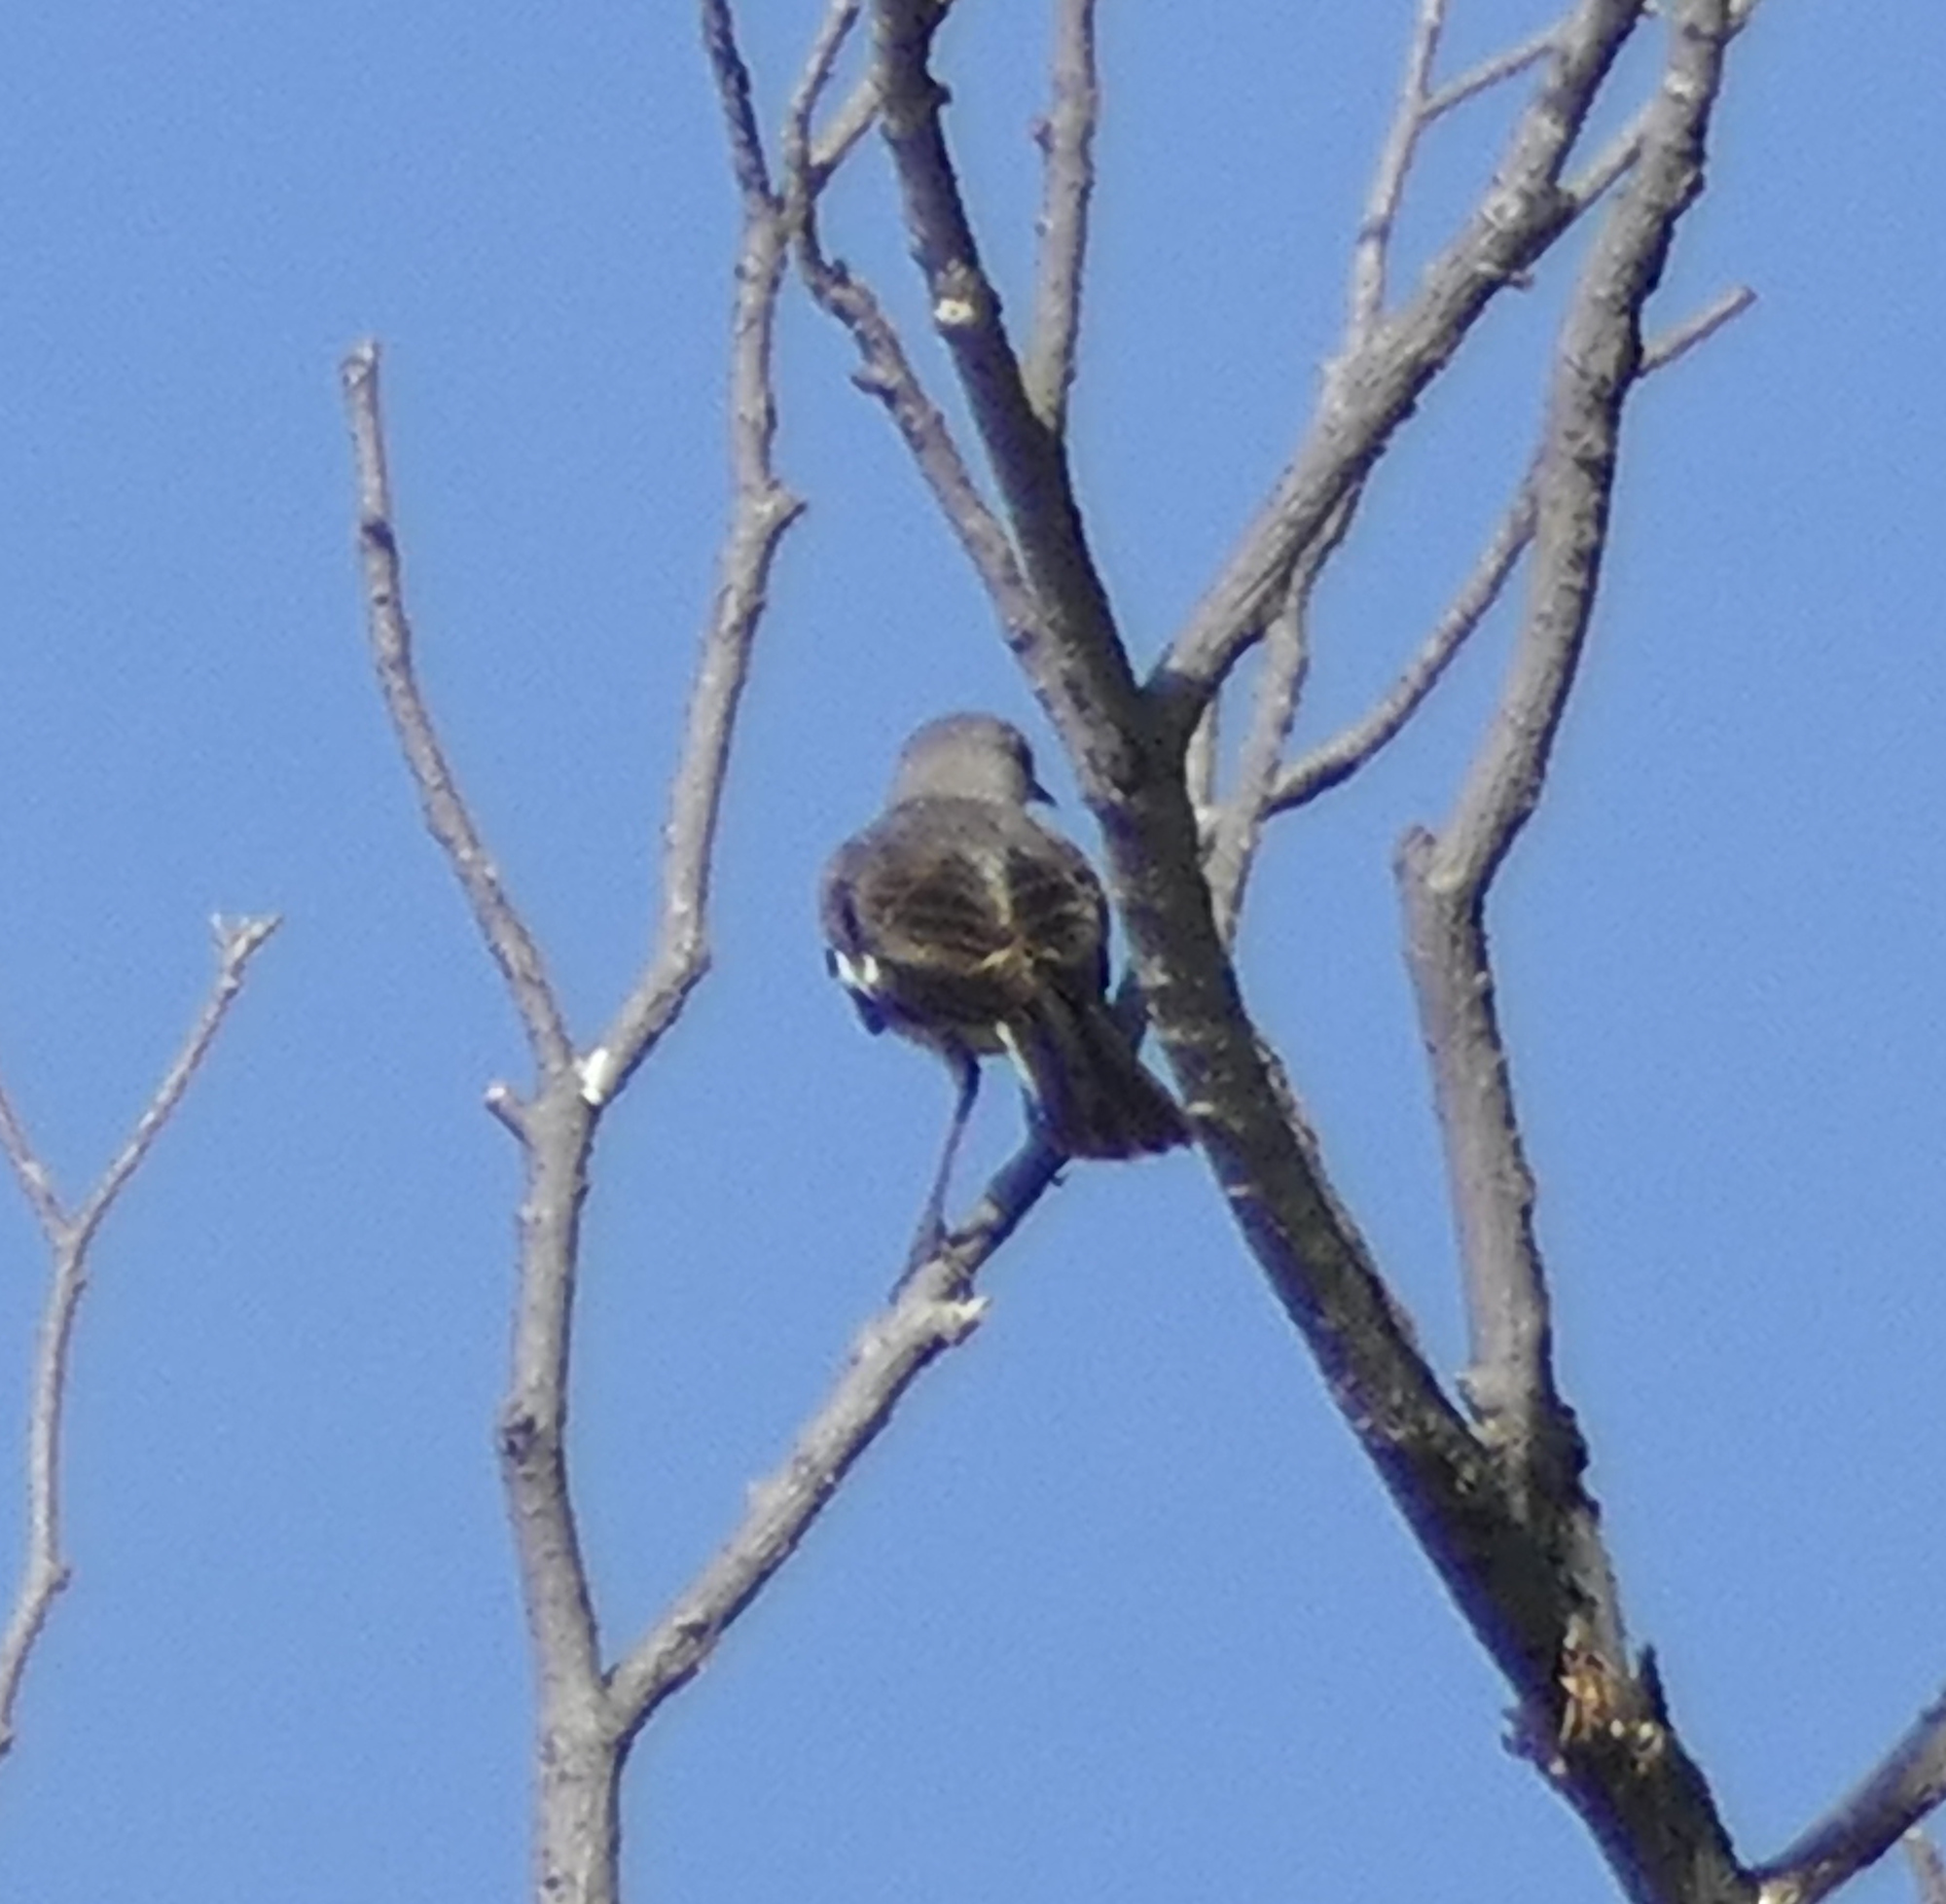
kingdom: Animalia
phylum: Chordata
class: Aves
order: Passeriformes
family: Mimidae
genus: Mimus
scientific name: Mimus polyglottos
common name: Northern mockingbird
